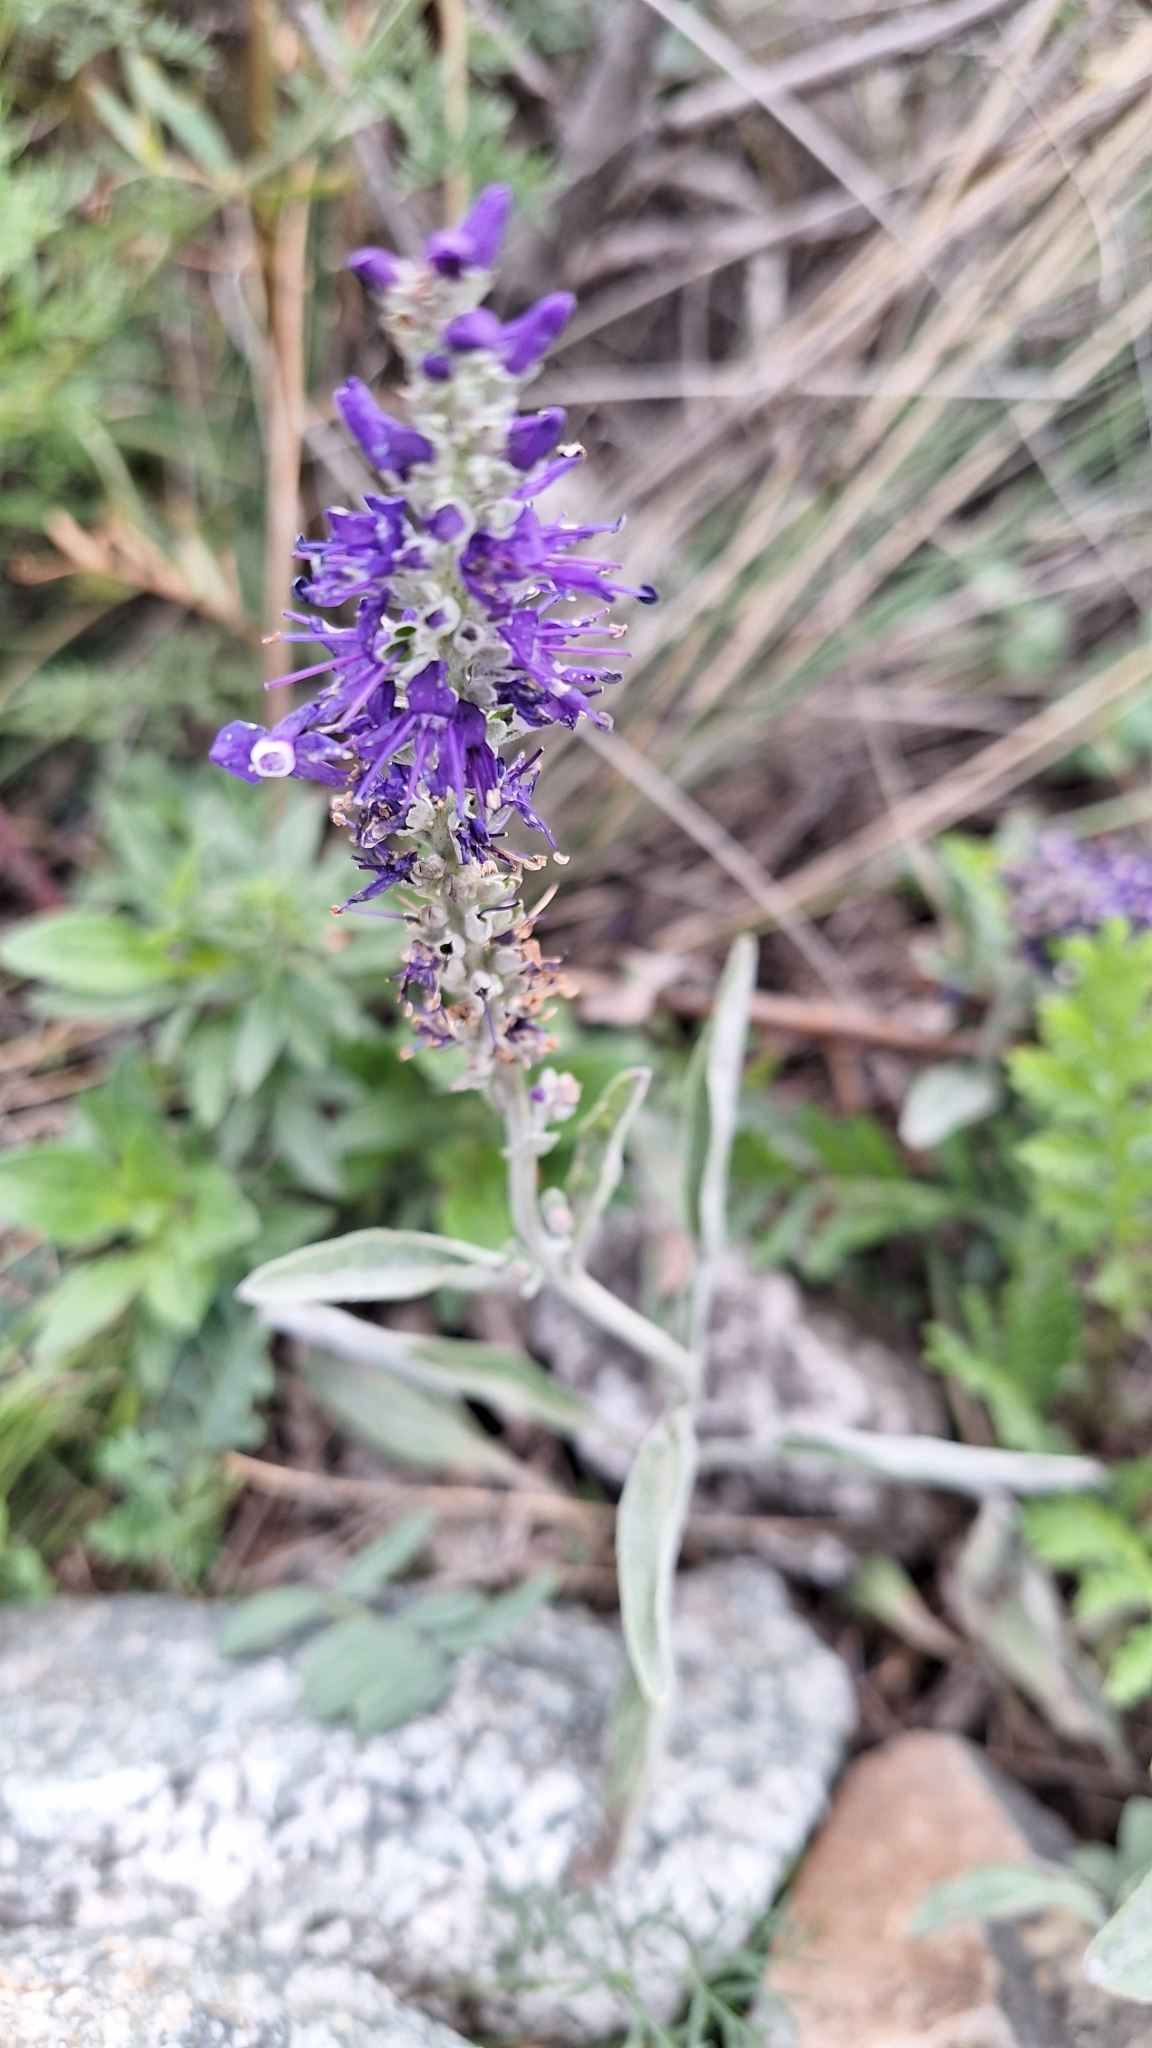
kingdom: Plantae
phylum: Tracheophyta
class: Magnoliopsida
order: Lamiales
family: Plantaginaceae
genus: Veronica
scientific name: Veronica incana
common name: Silver speedwell
